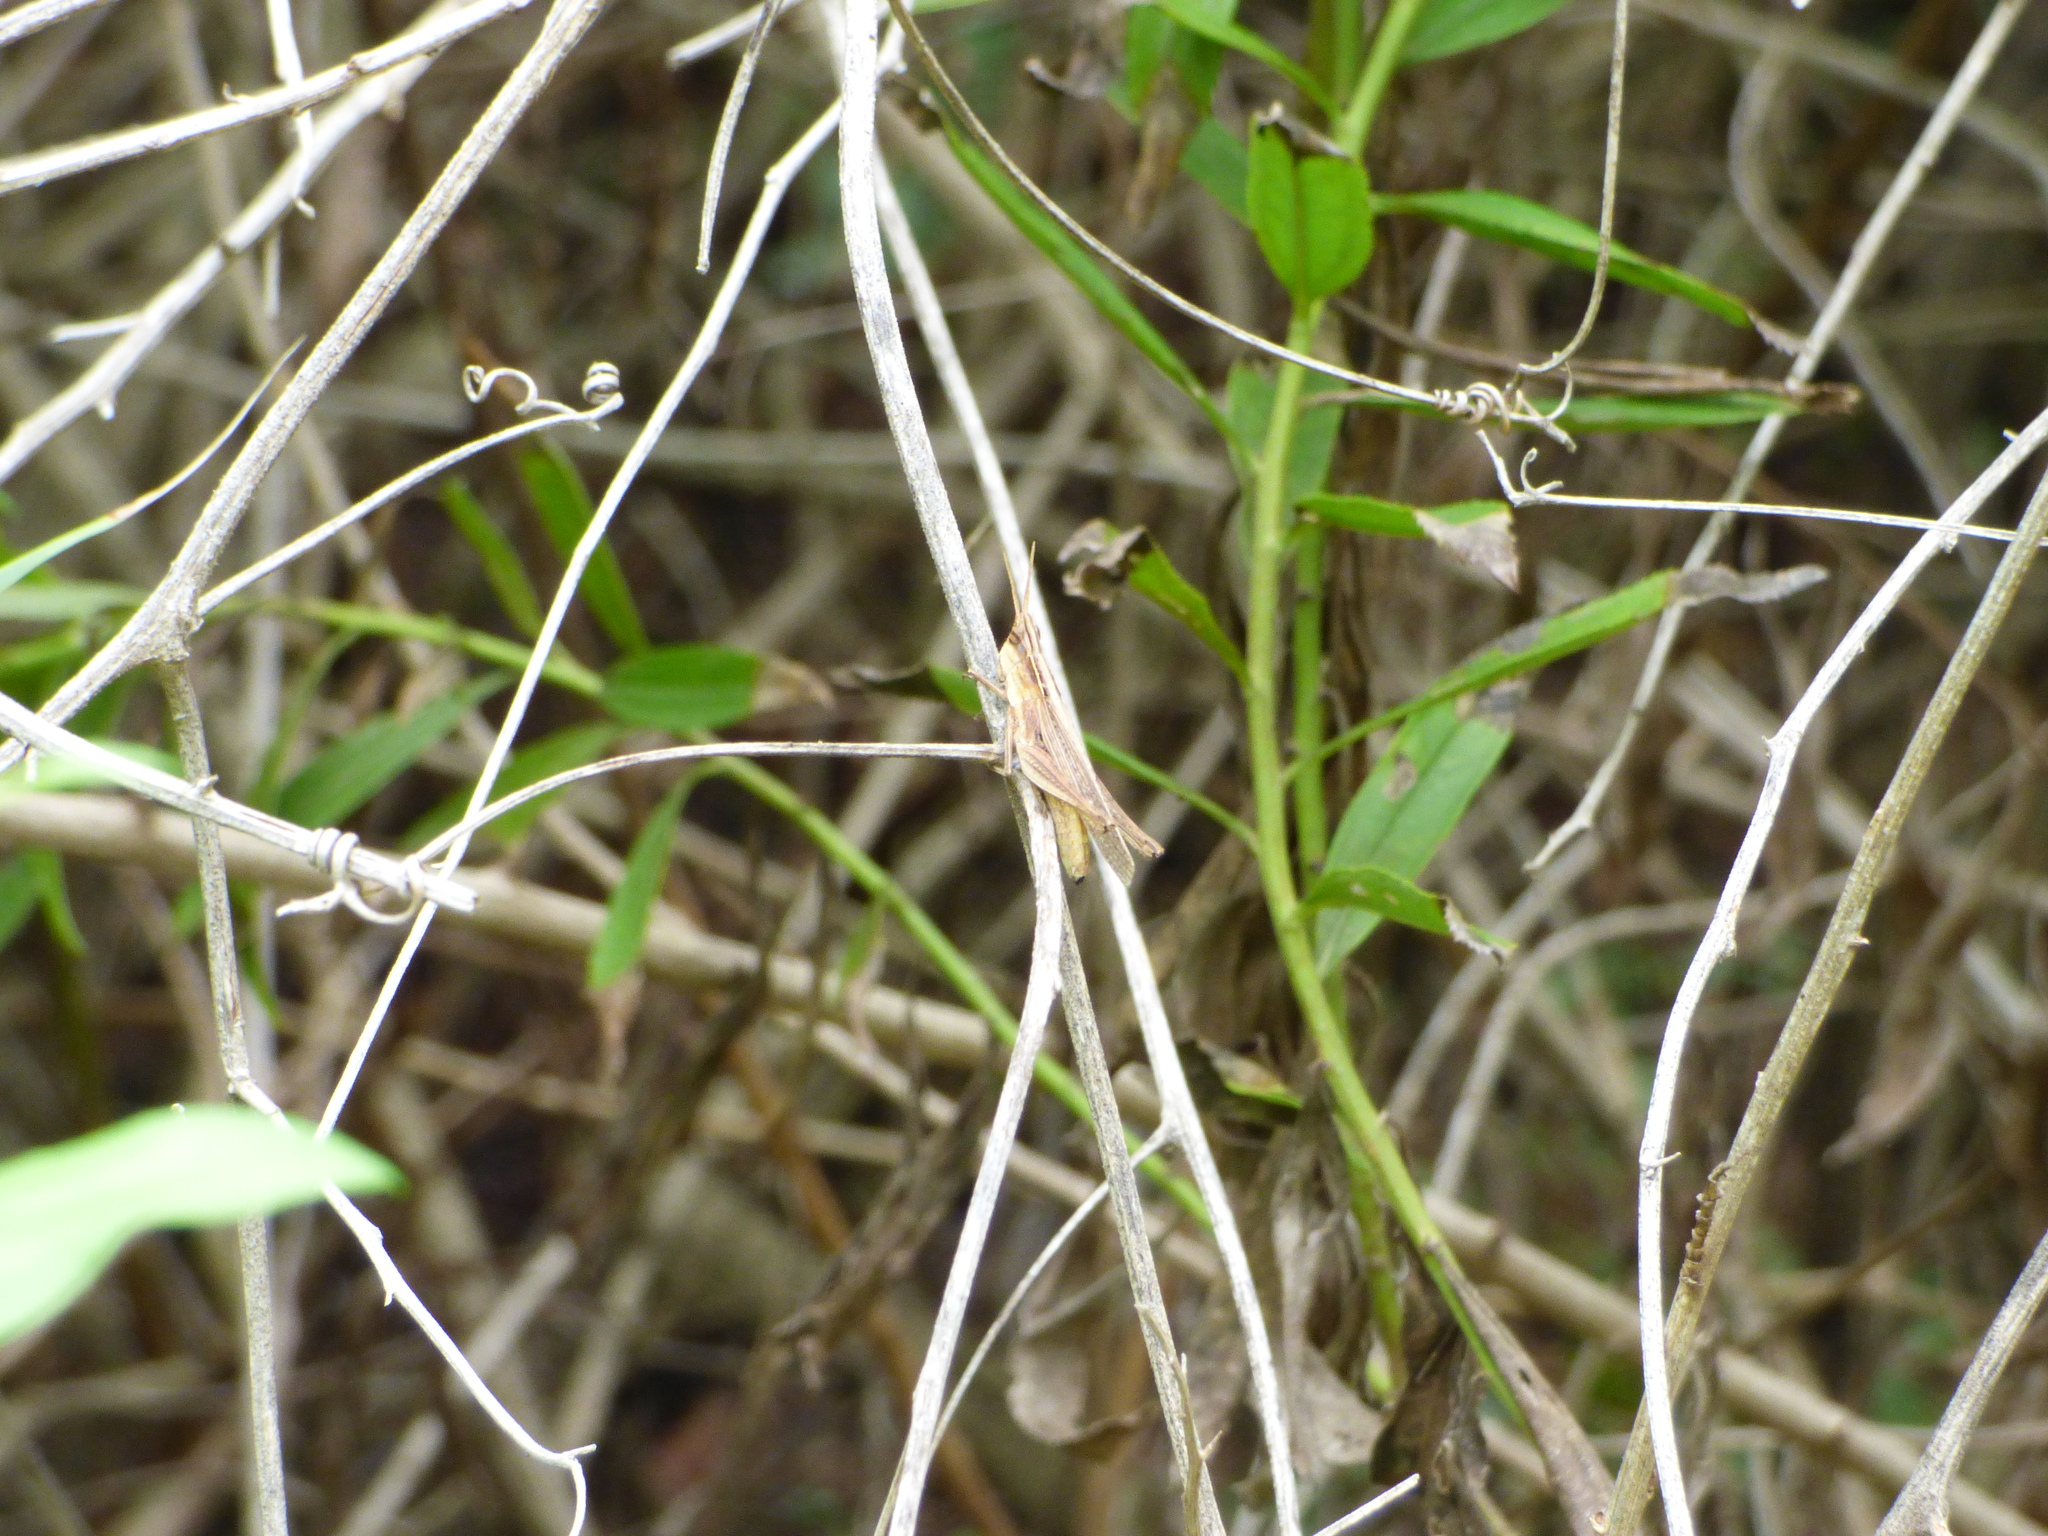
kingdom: Animalia
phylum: Arthropoda
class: Insecta
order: Orthoptera
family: Acrididae
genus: Eutryxalis
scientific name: Eutryxalis filata
